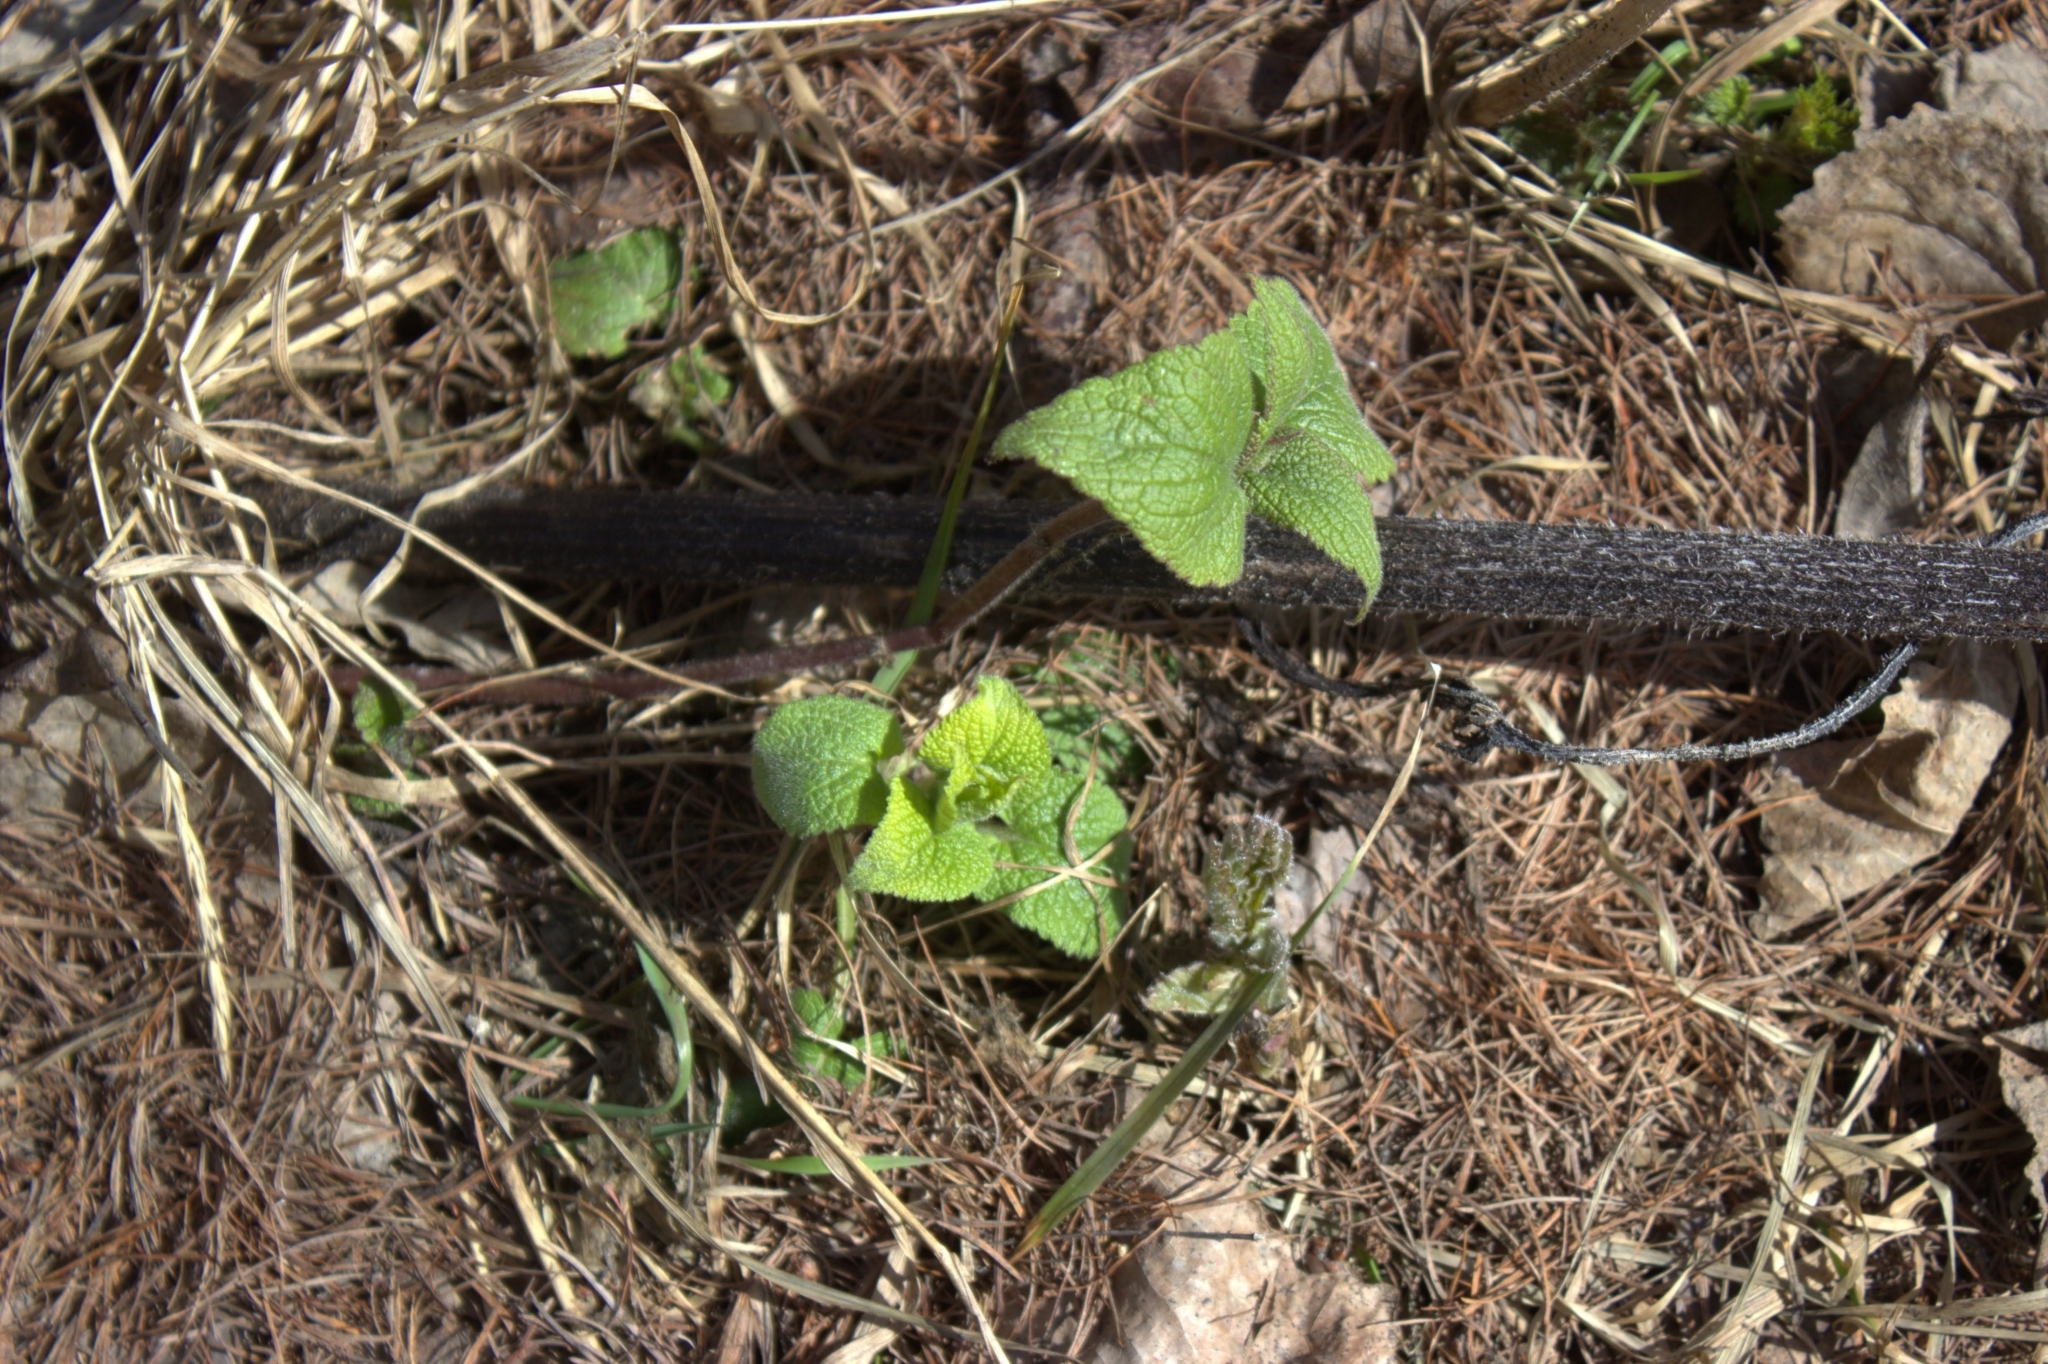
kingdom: Plantae
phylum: Tracheophyta
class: Magnoliopsida
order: Lamiales
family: Lamiaceae
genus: Lamium
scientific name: Lamium album
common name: White dead-nettle
